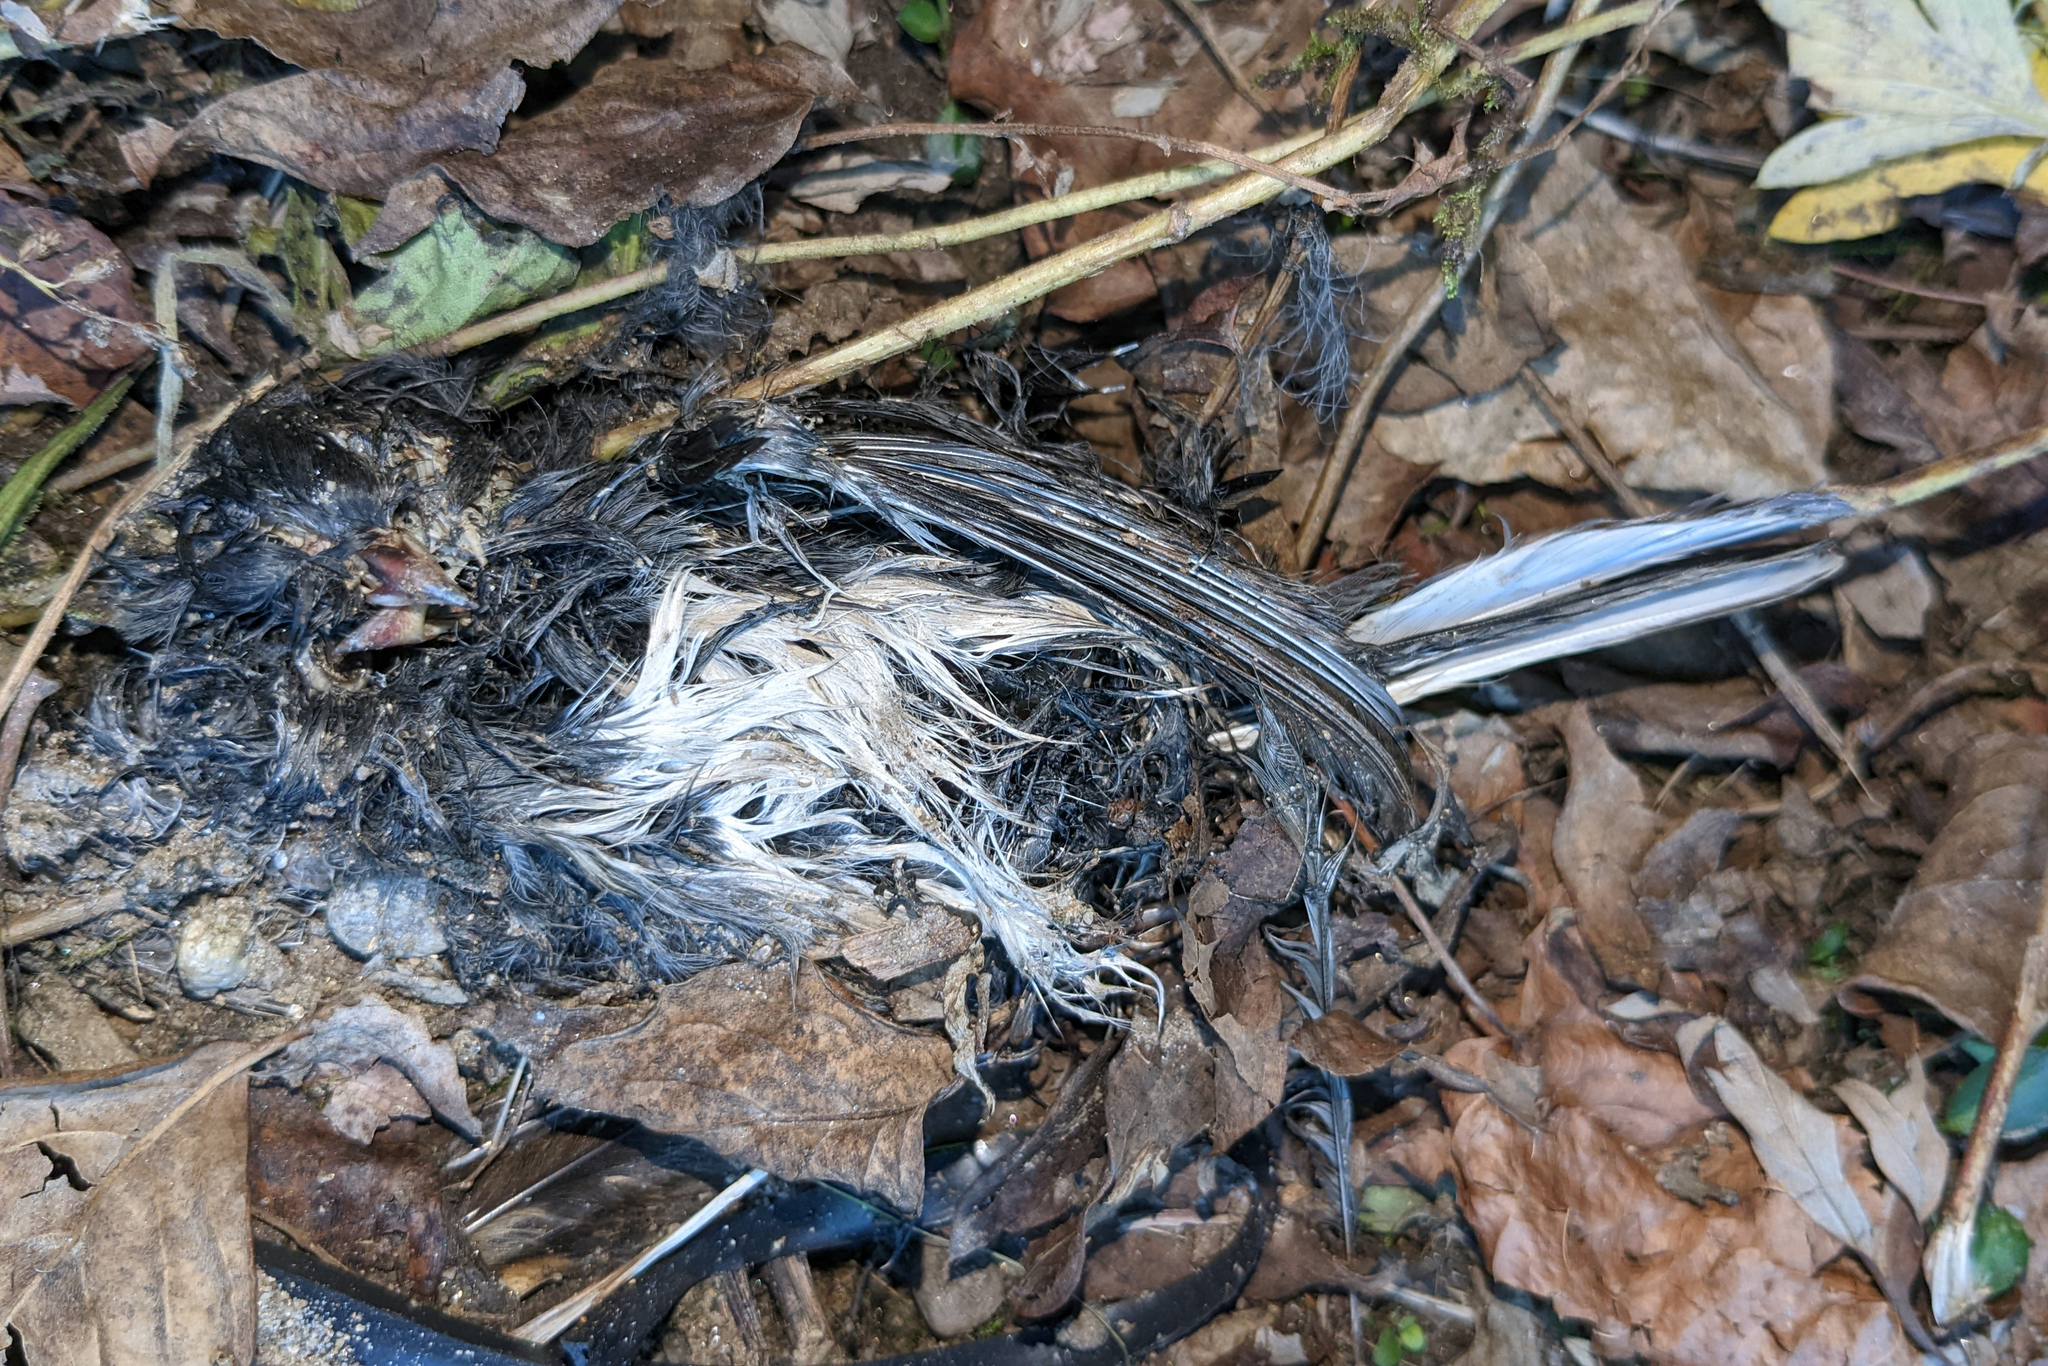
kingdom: Animalia
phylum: Chordata
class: Aves
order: Passeriformes
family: Passerellidae
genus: Junco
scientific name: Junco hyemalis
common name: Dark-eyed junco
